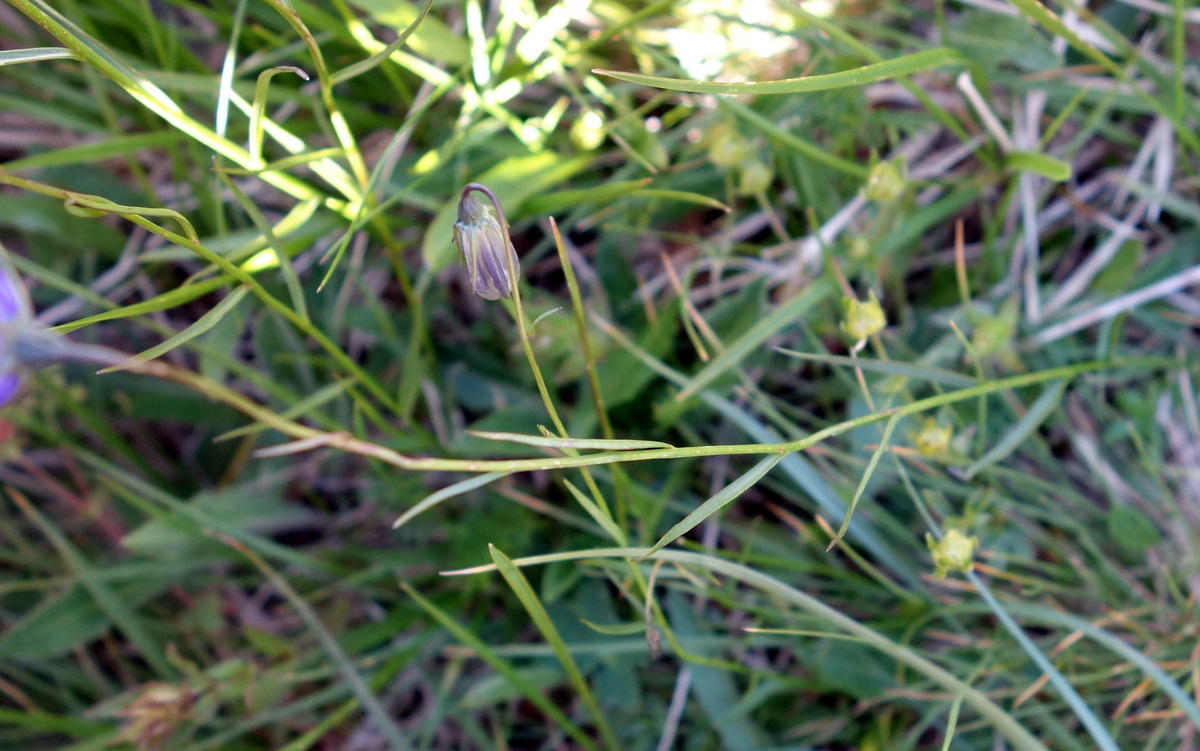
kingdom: Plantae
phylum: Tracheophyta
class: Magnoliopsida
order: Asterales
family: Campanulaceae
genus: Campanula
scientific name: Campanula scheuchzeri
